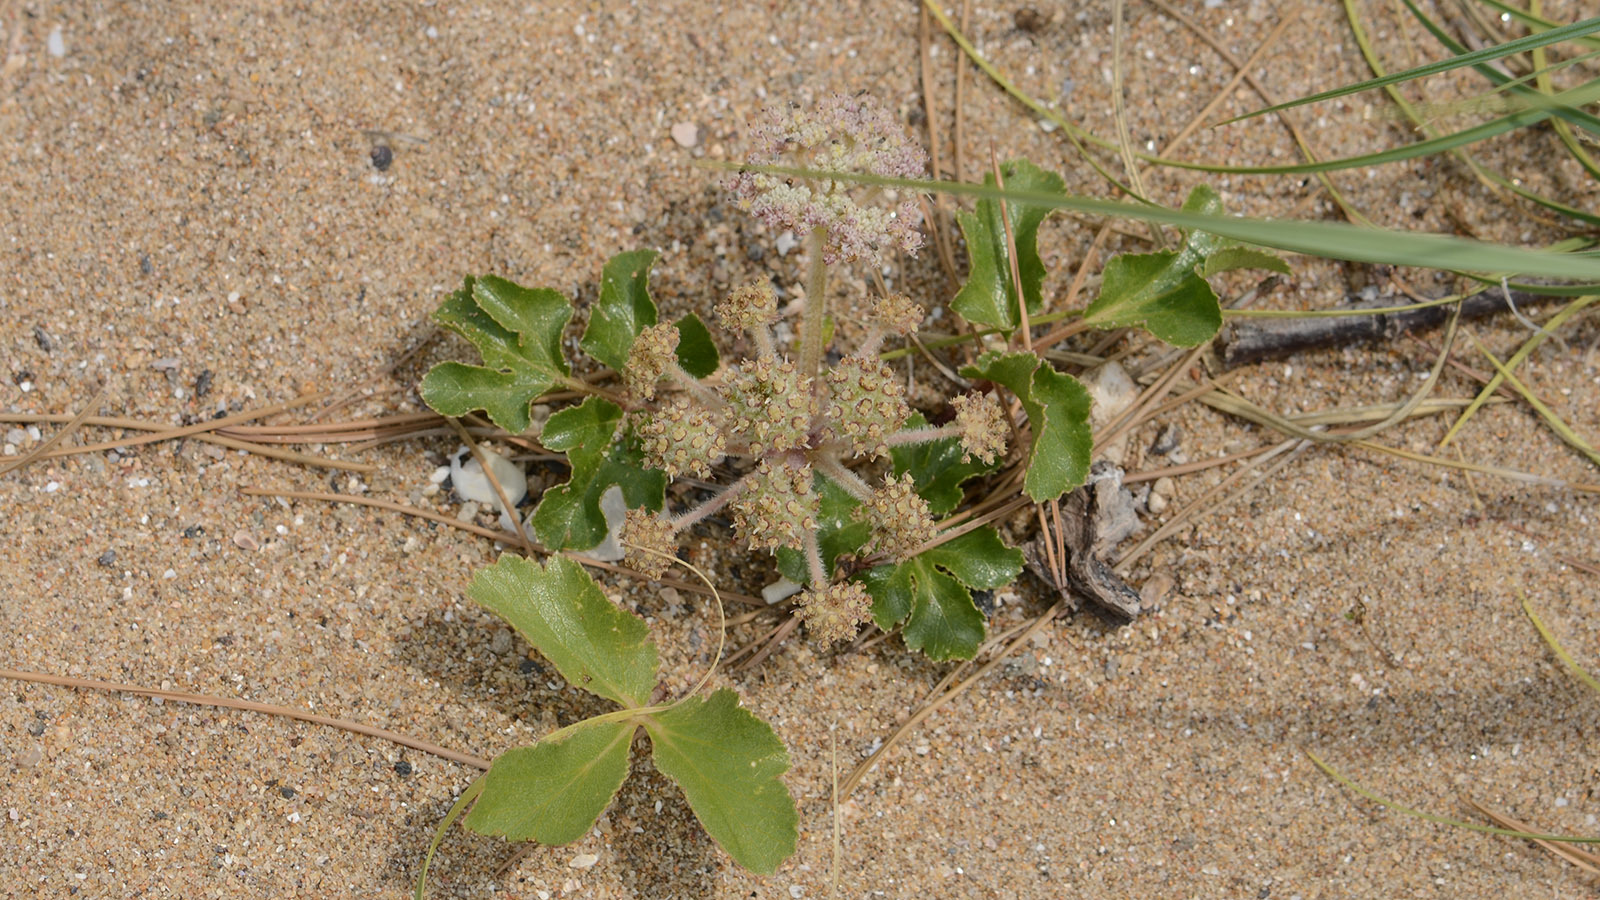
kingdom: Plantae
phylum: Tracheophyta
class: Magnoliopsida
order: Apiales
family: Apiaceae
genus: Glehnia
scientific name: Glehnia littoralis
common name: Beach silvertop
